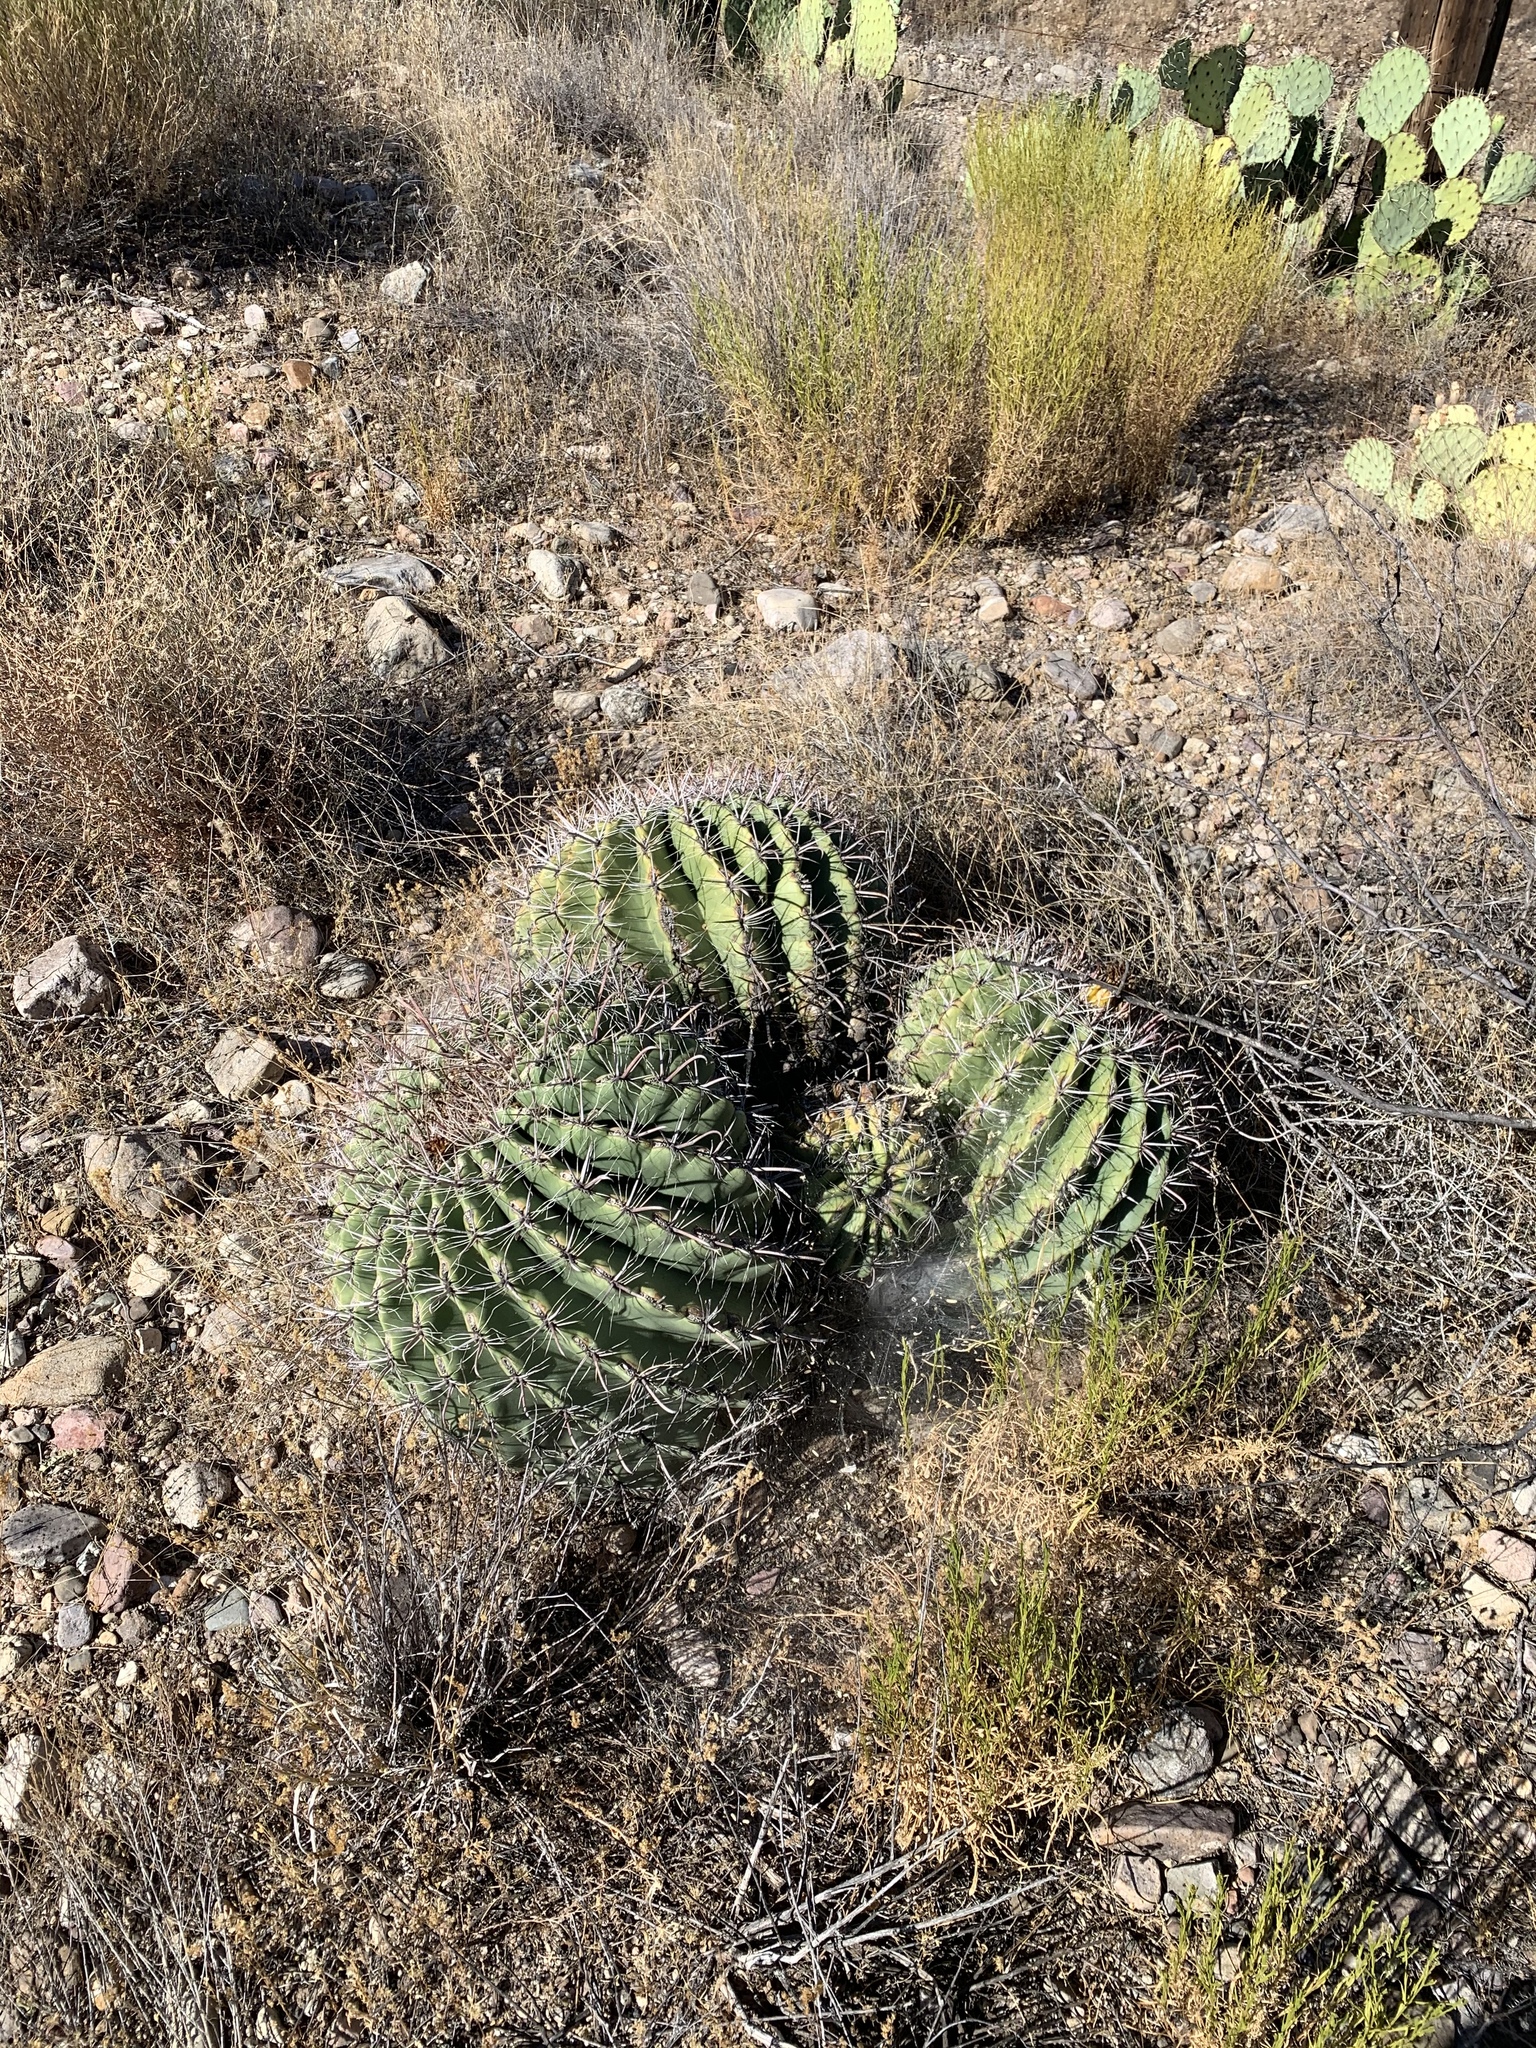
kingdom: Plantae
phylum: Tracheophyta
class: Magnoliopsida
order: Caryophyllales
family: Cactaceae
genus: Ferocactus
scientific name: Ferocactus wislizeni
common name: Candy barrel cactus
